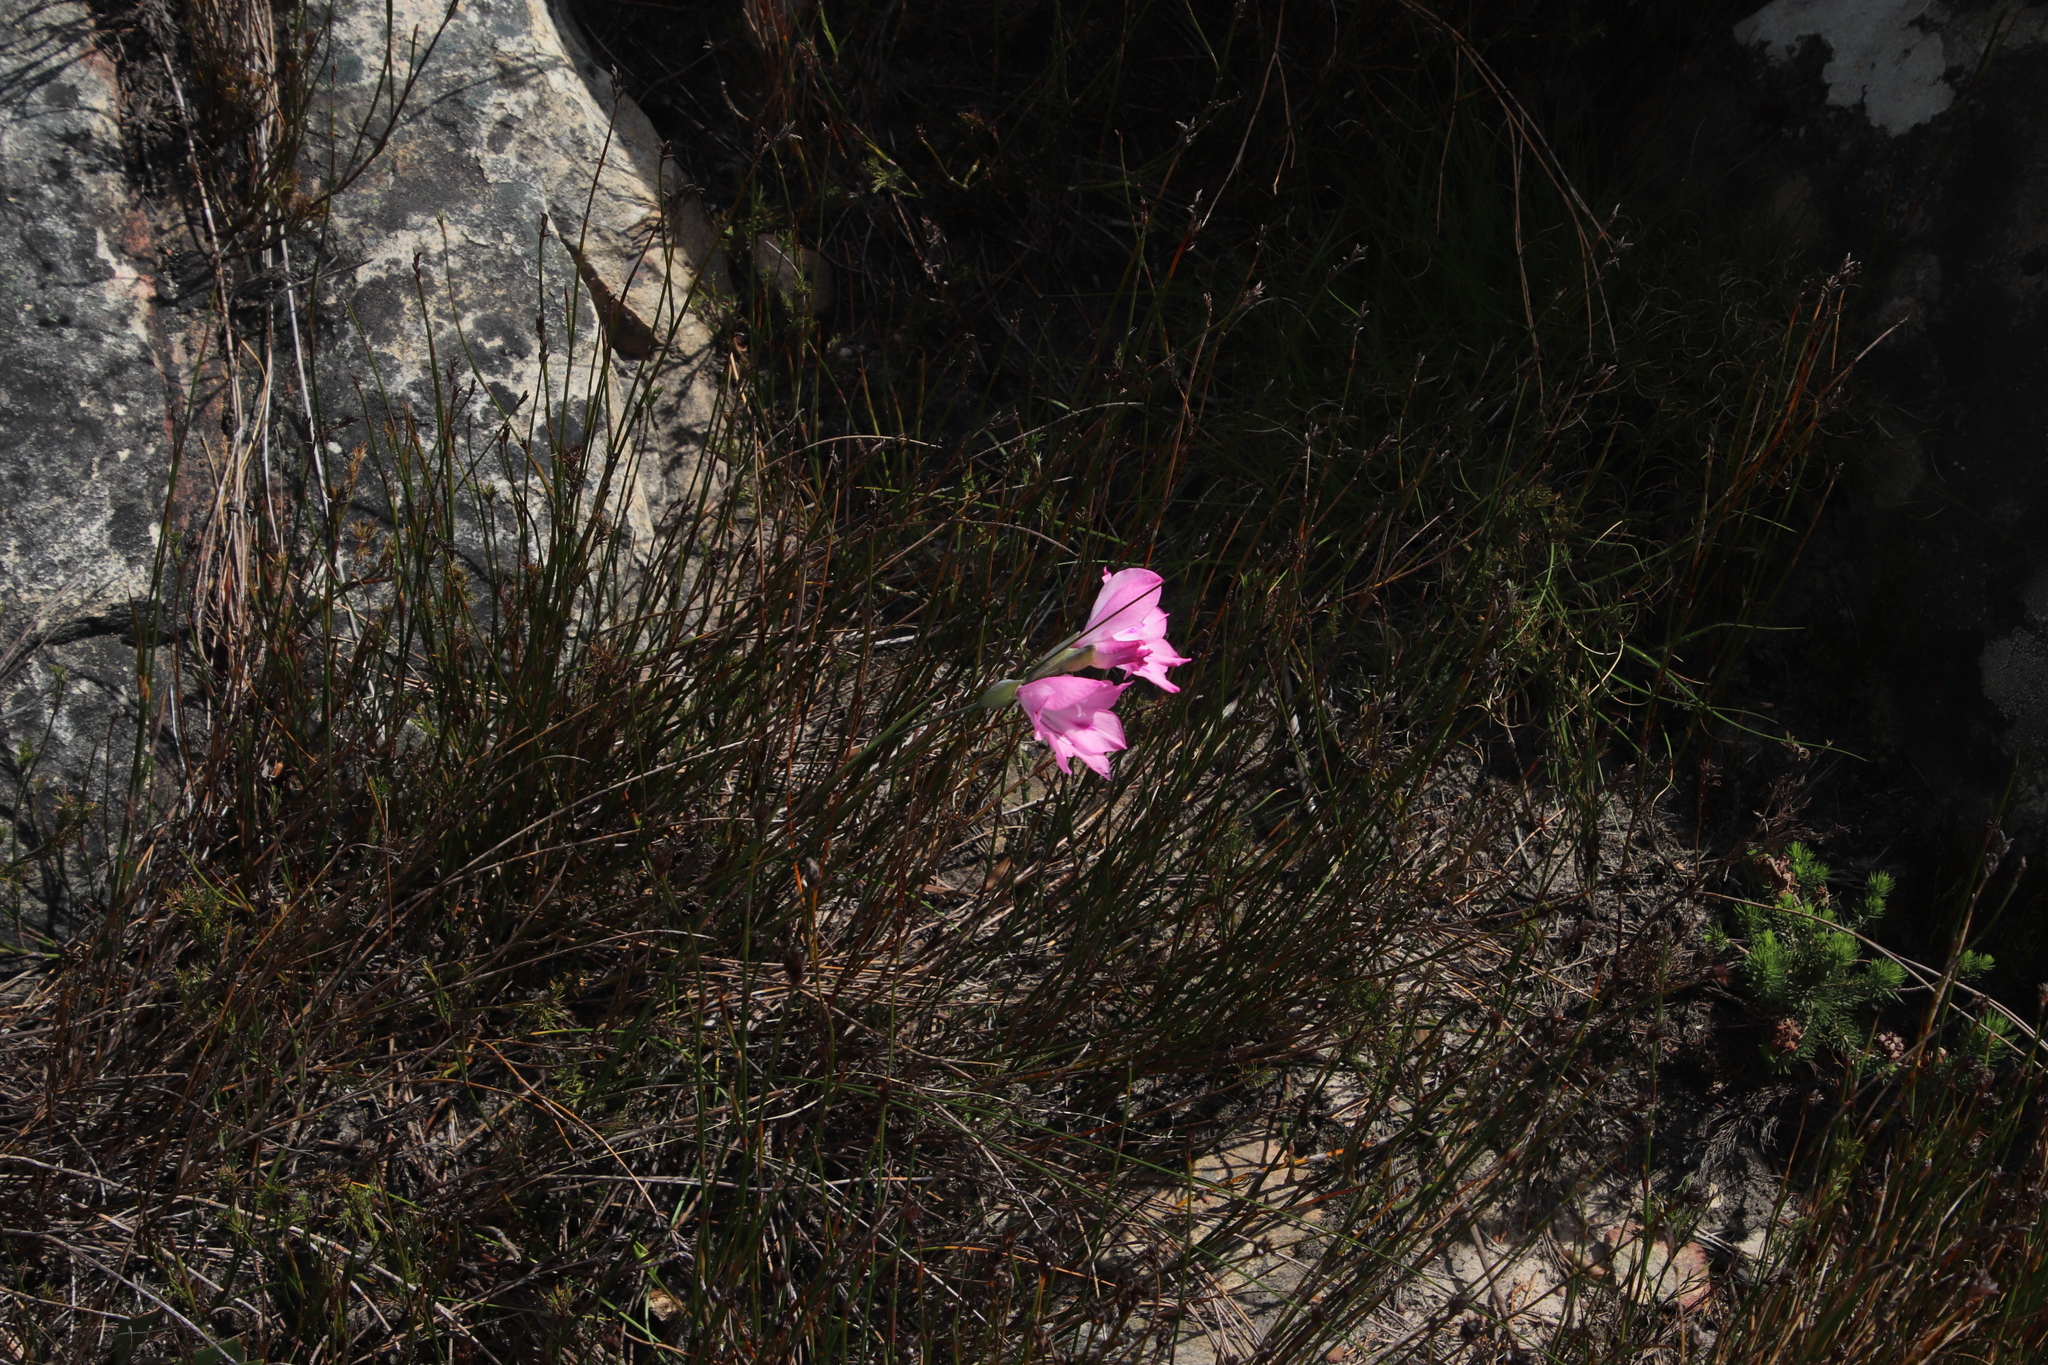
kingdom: Plantae
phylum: Tracheophyta
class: Liliopsida
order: Asparagales
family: Iridaceae
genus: Gladiolus
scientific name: Gladiolus inflatus
